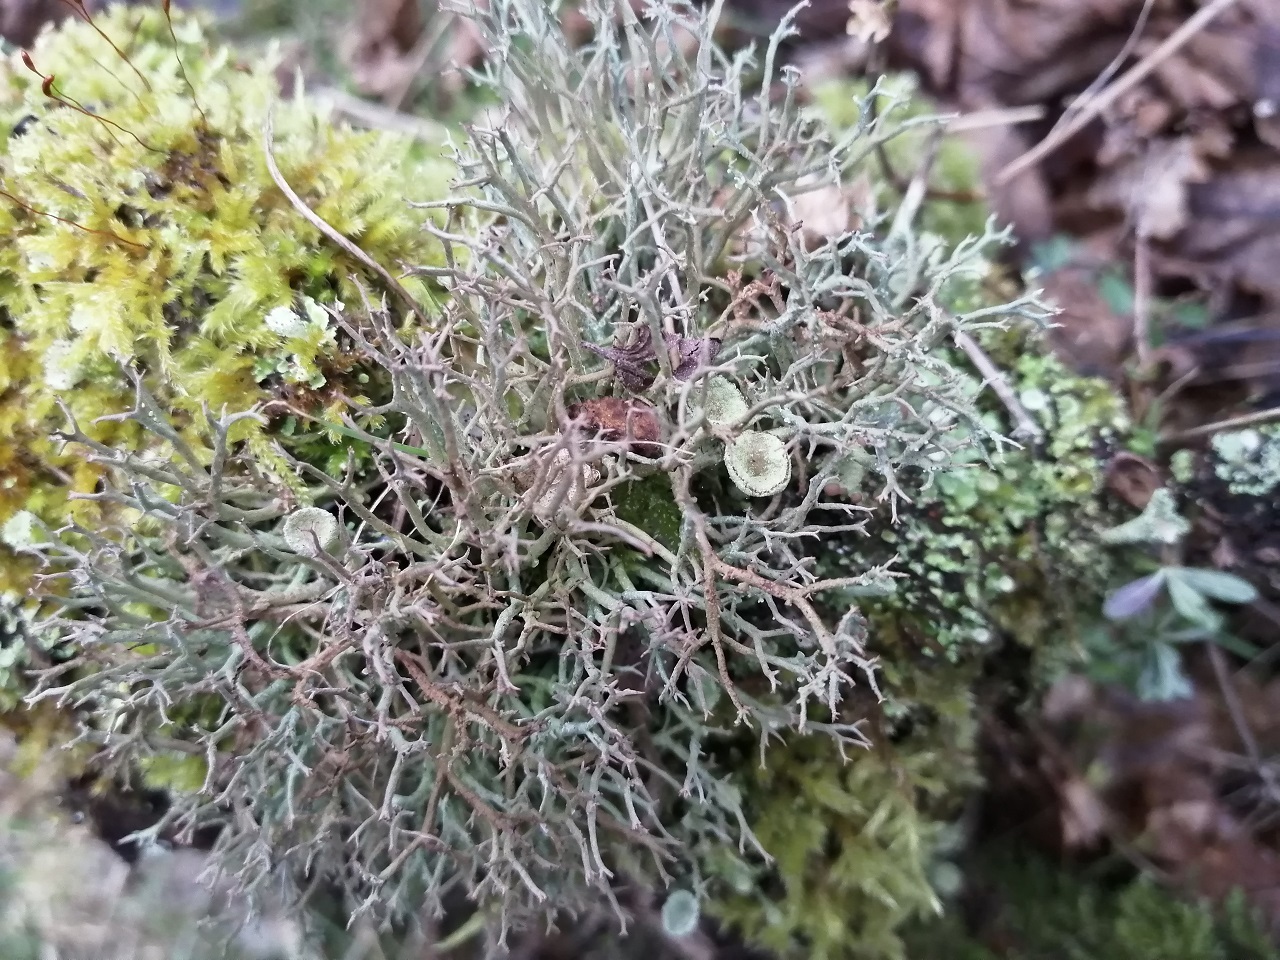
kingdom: Fungi
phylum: Ascomycota
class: Lecanoromycetes
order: Lecanorales
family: Cladoniaceae
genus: Cladonia
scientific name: Cladonia furcata
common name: Many-forked cladonia
